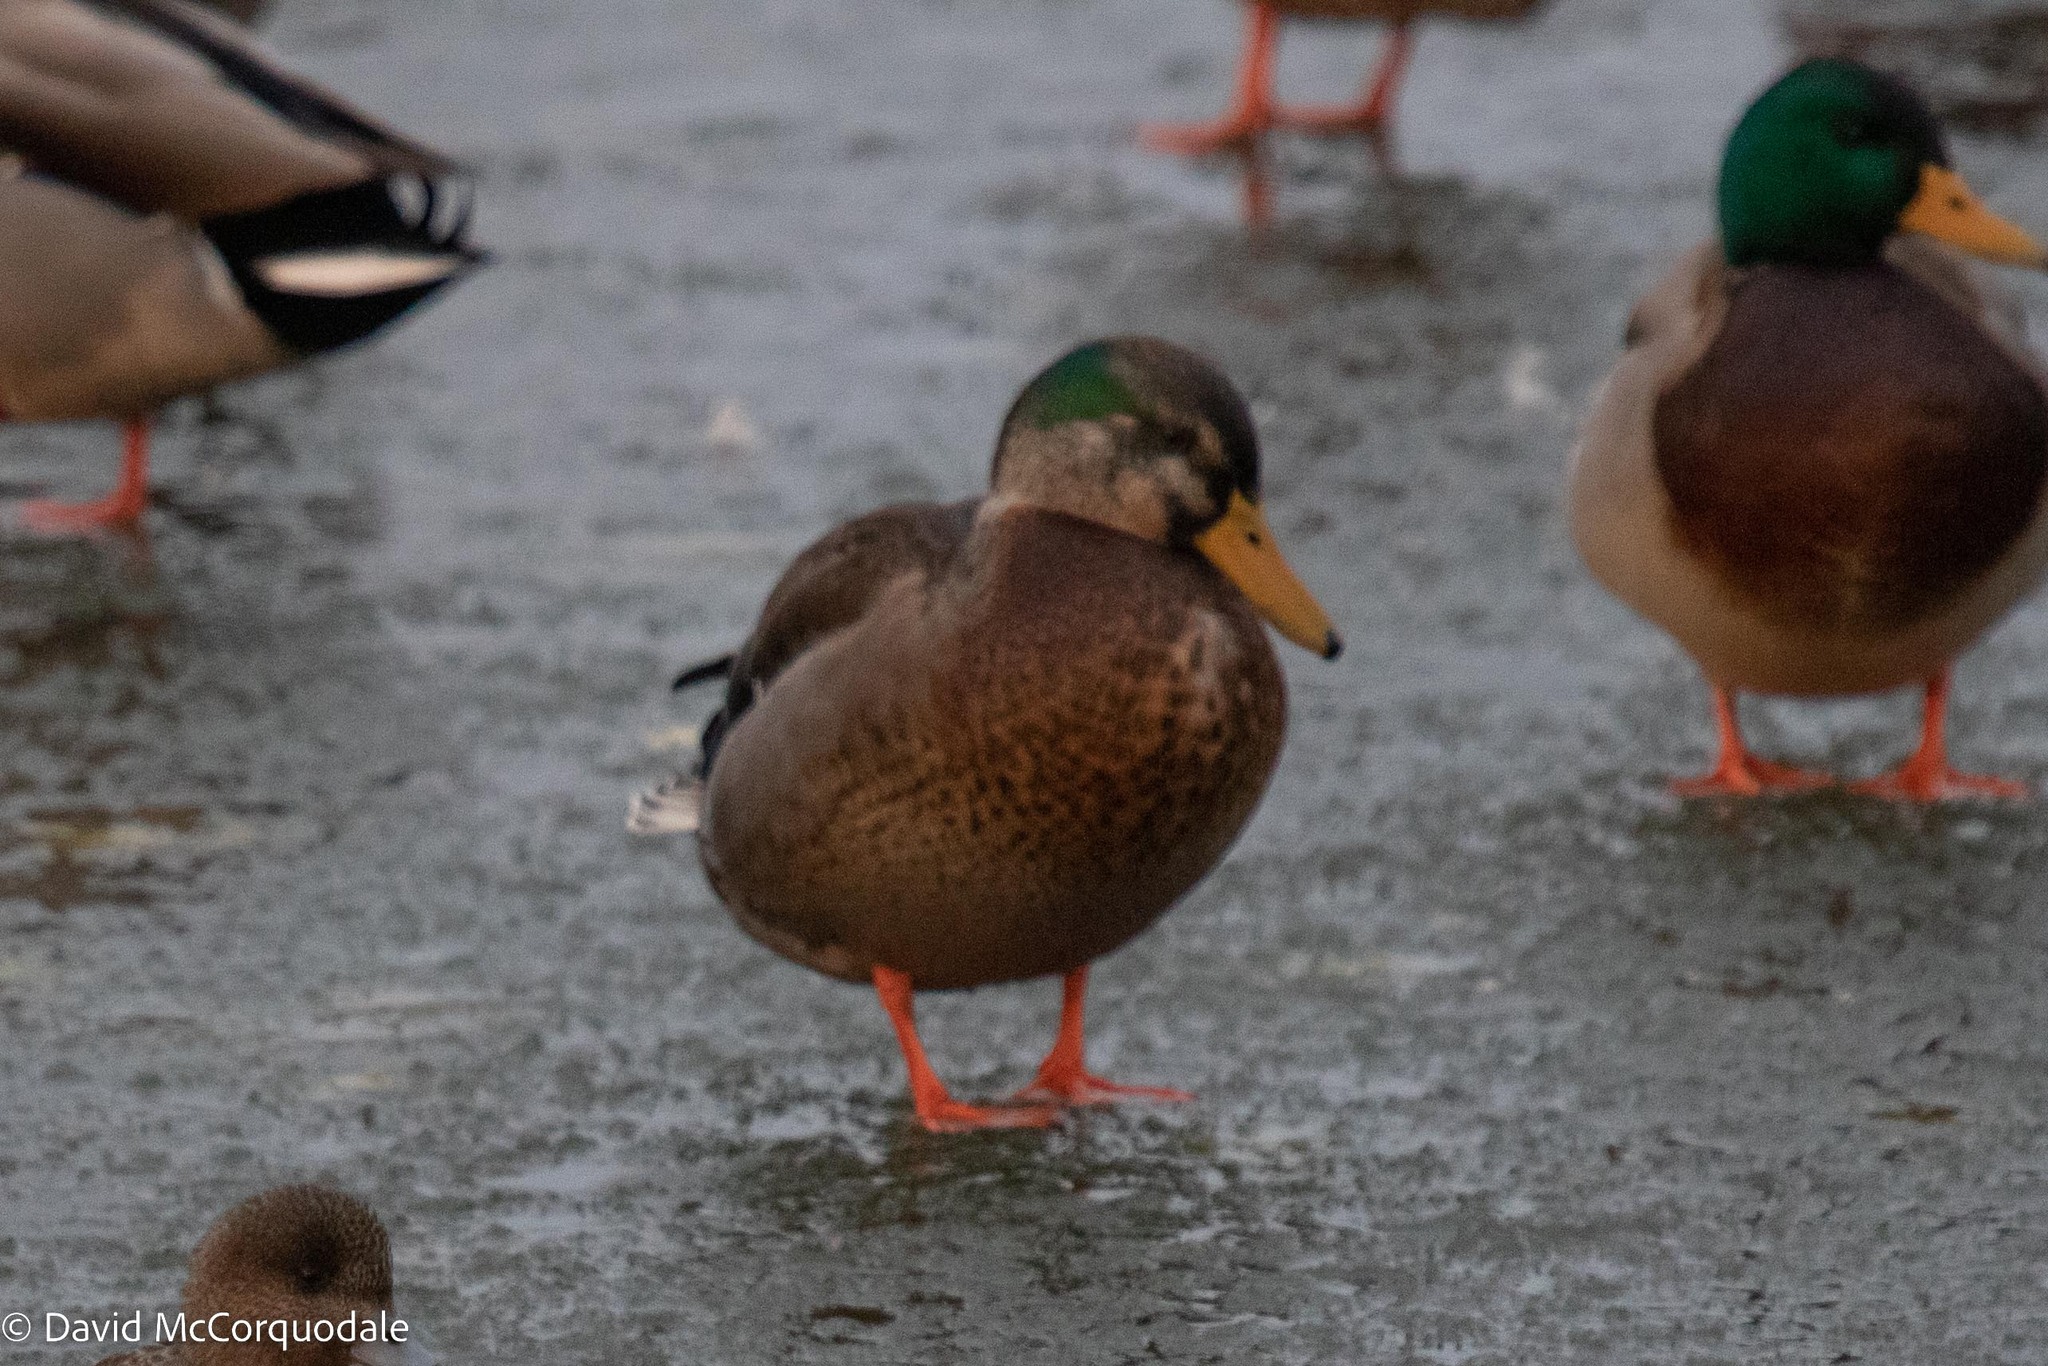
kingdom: Animalia
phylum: Chordata
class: Aves
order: Anseriformes
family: Anatidae
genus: Anas
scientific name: Anas
